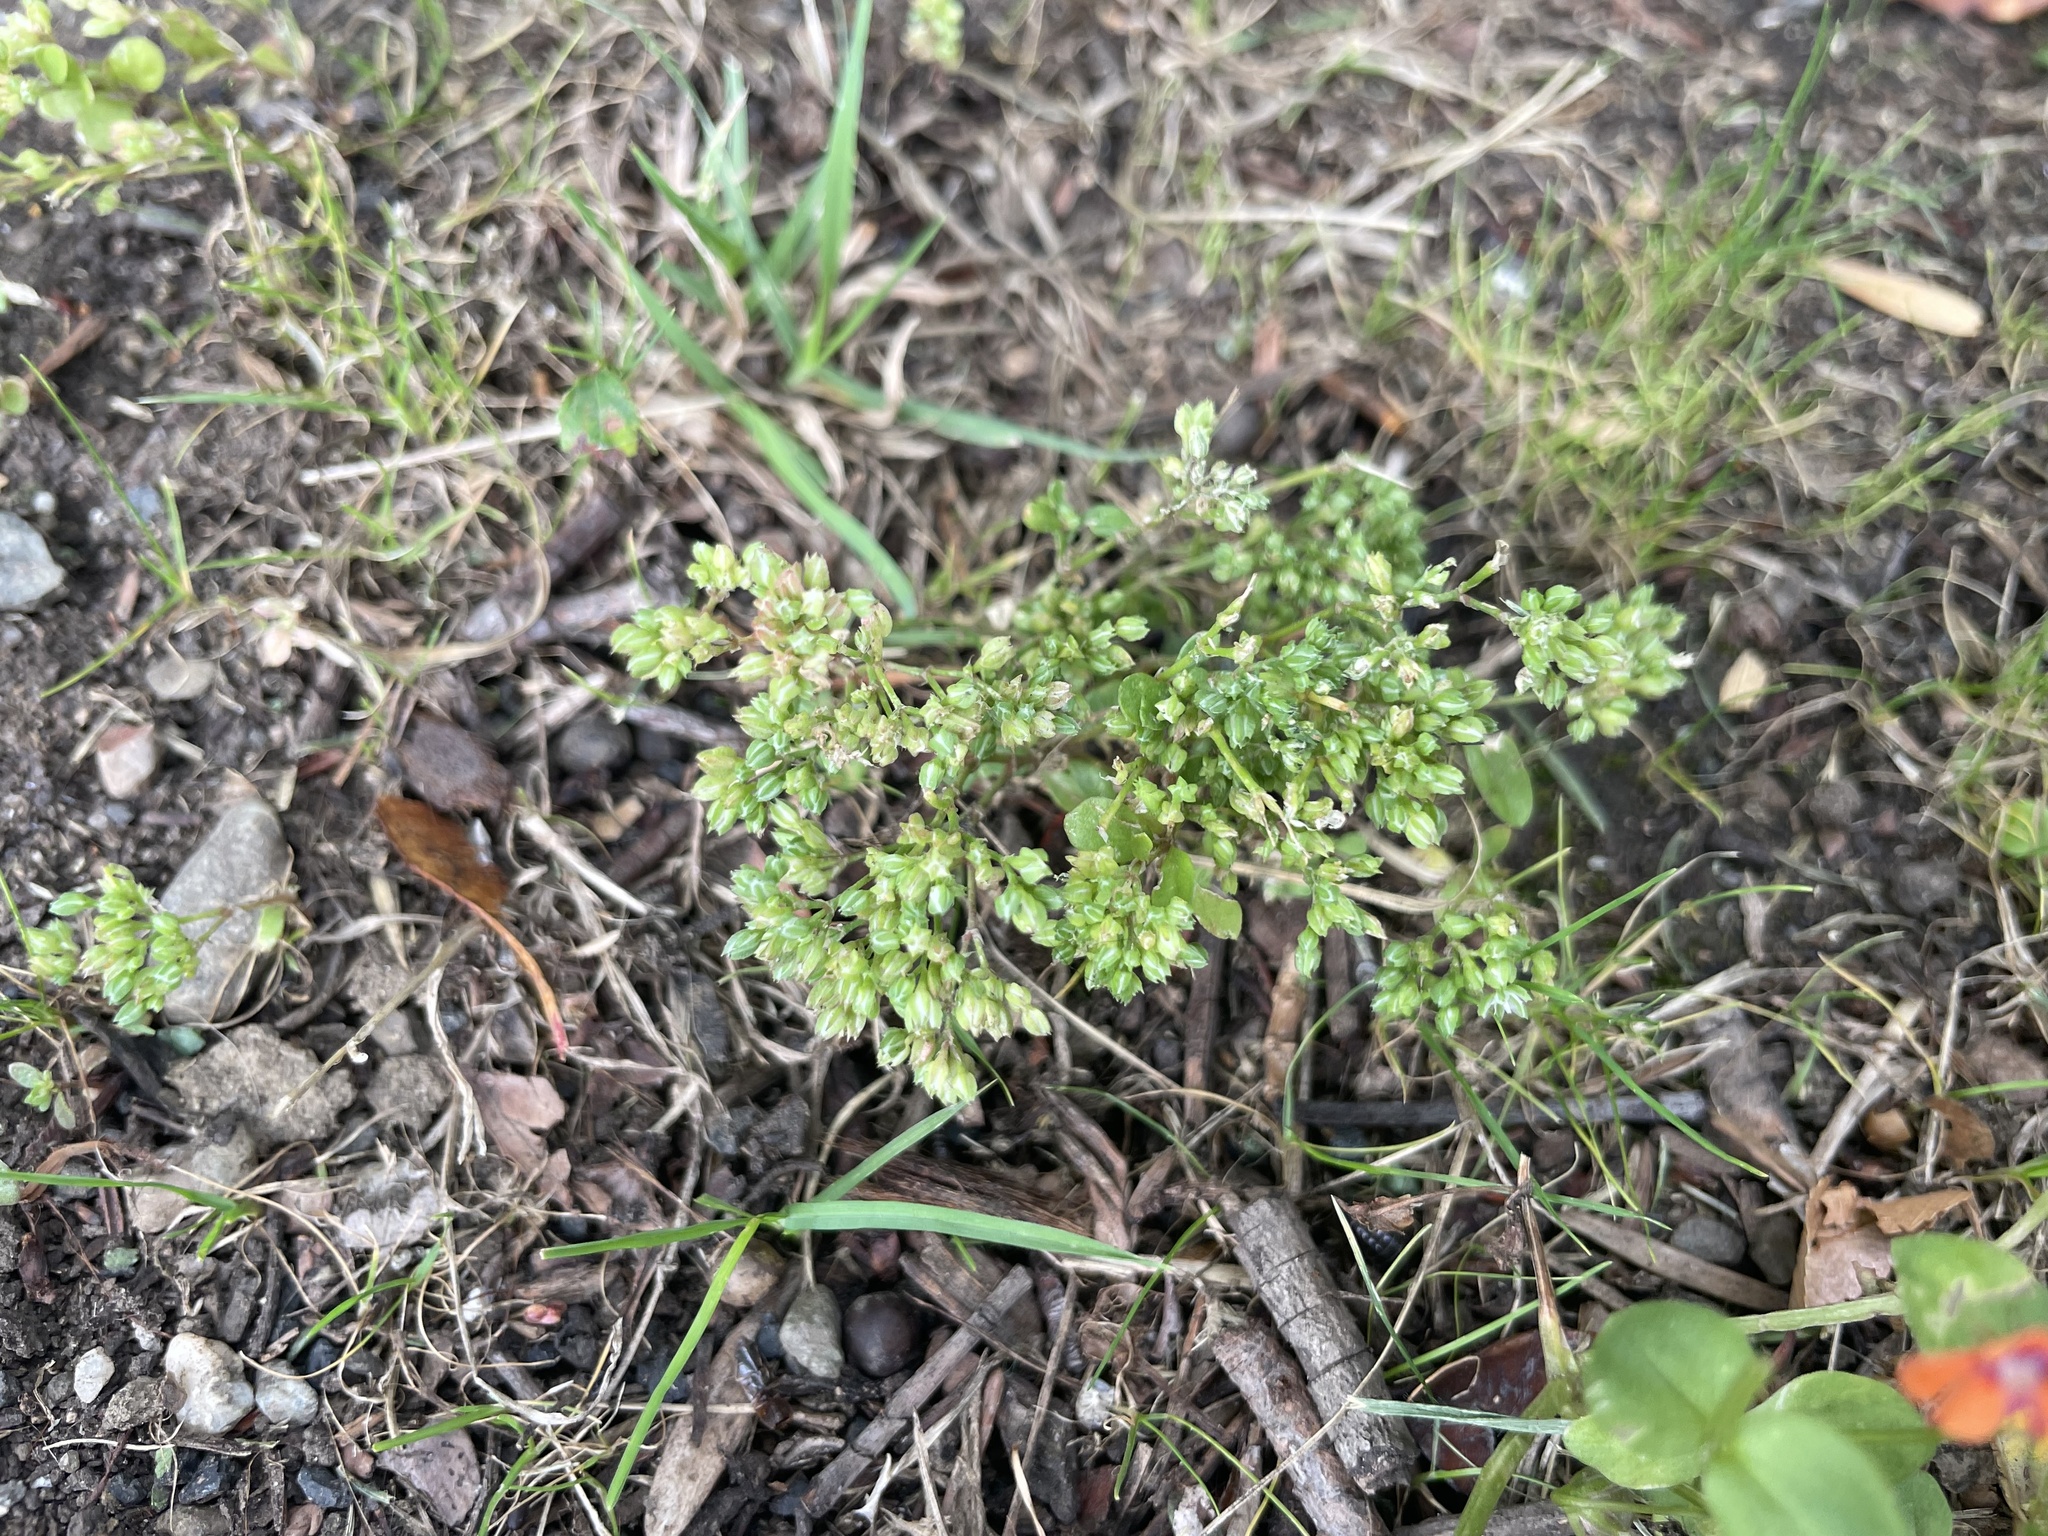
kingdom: Plantae
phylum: Tracheophyta
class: Magnoliopsida
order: Caryophyllales
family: Caryophyllaceae
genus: Polycarpon
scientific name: Polycarpon tetraphyllum
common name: Four-leaved all-seed
